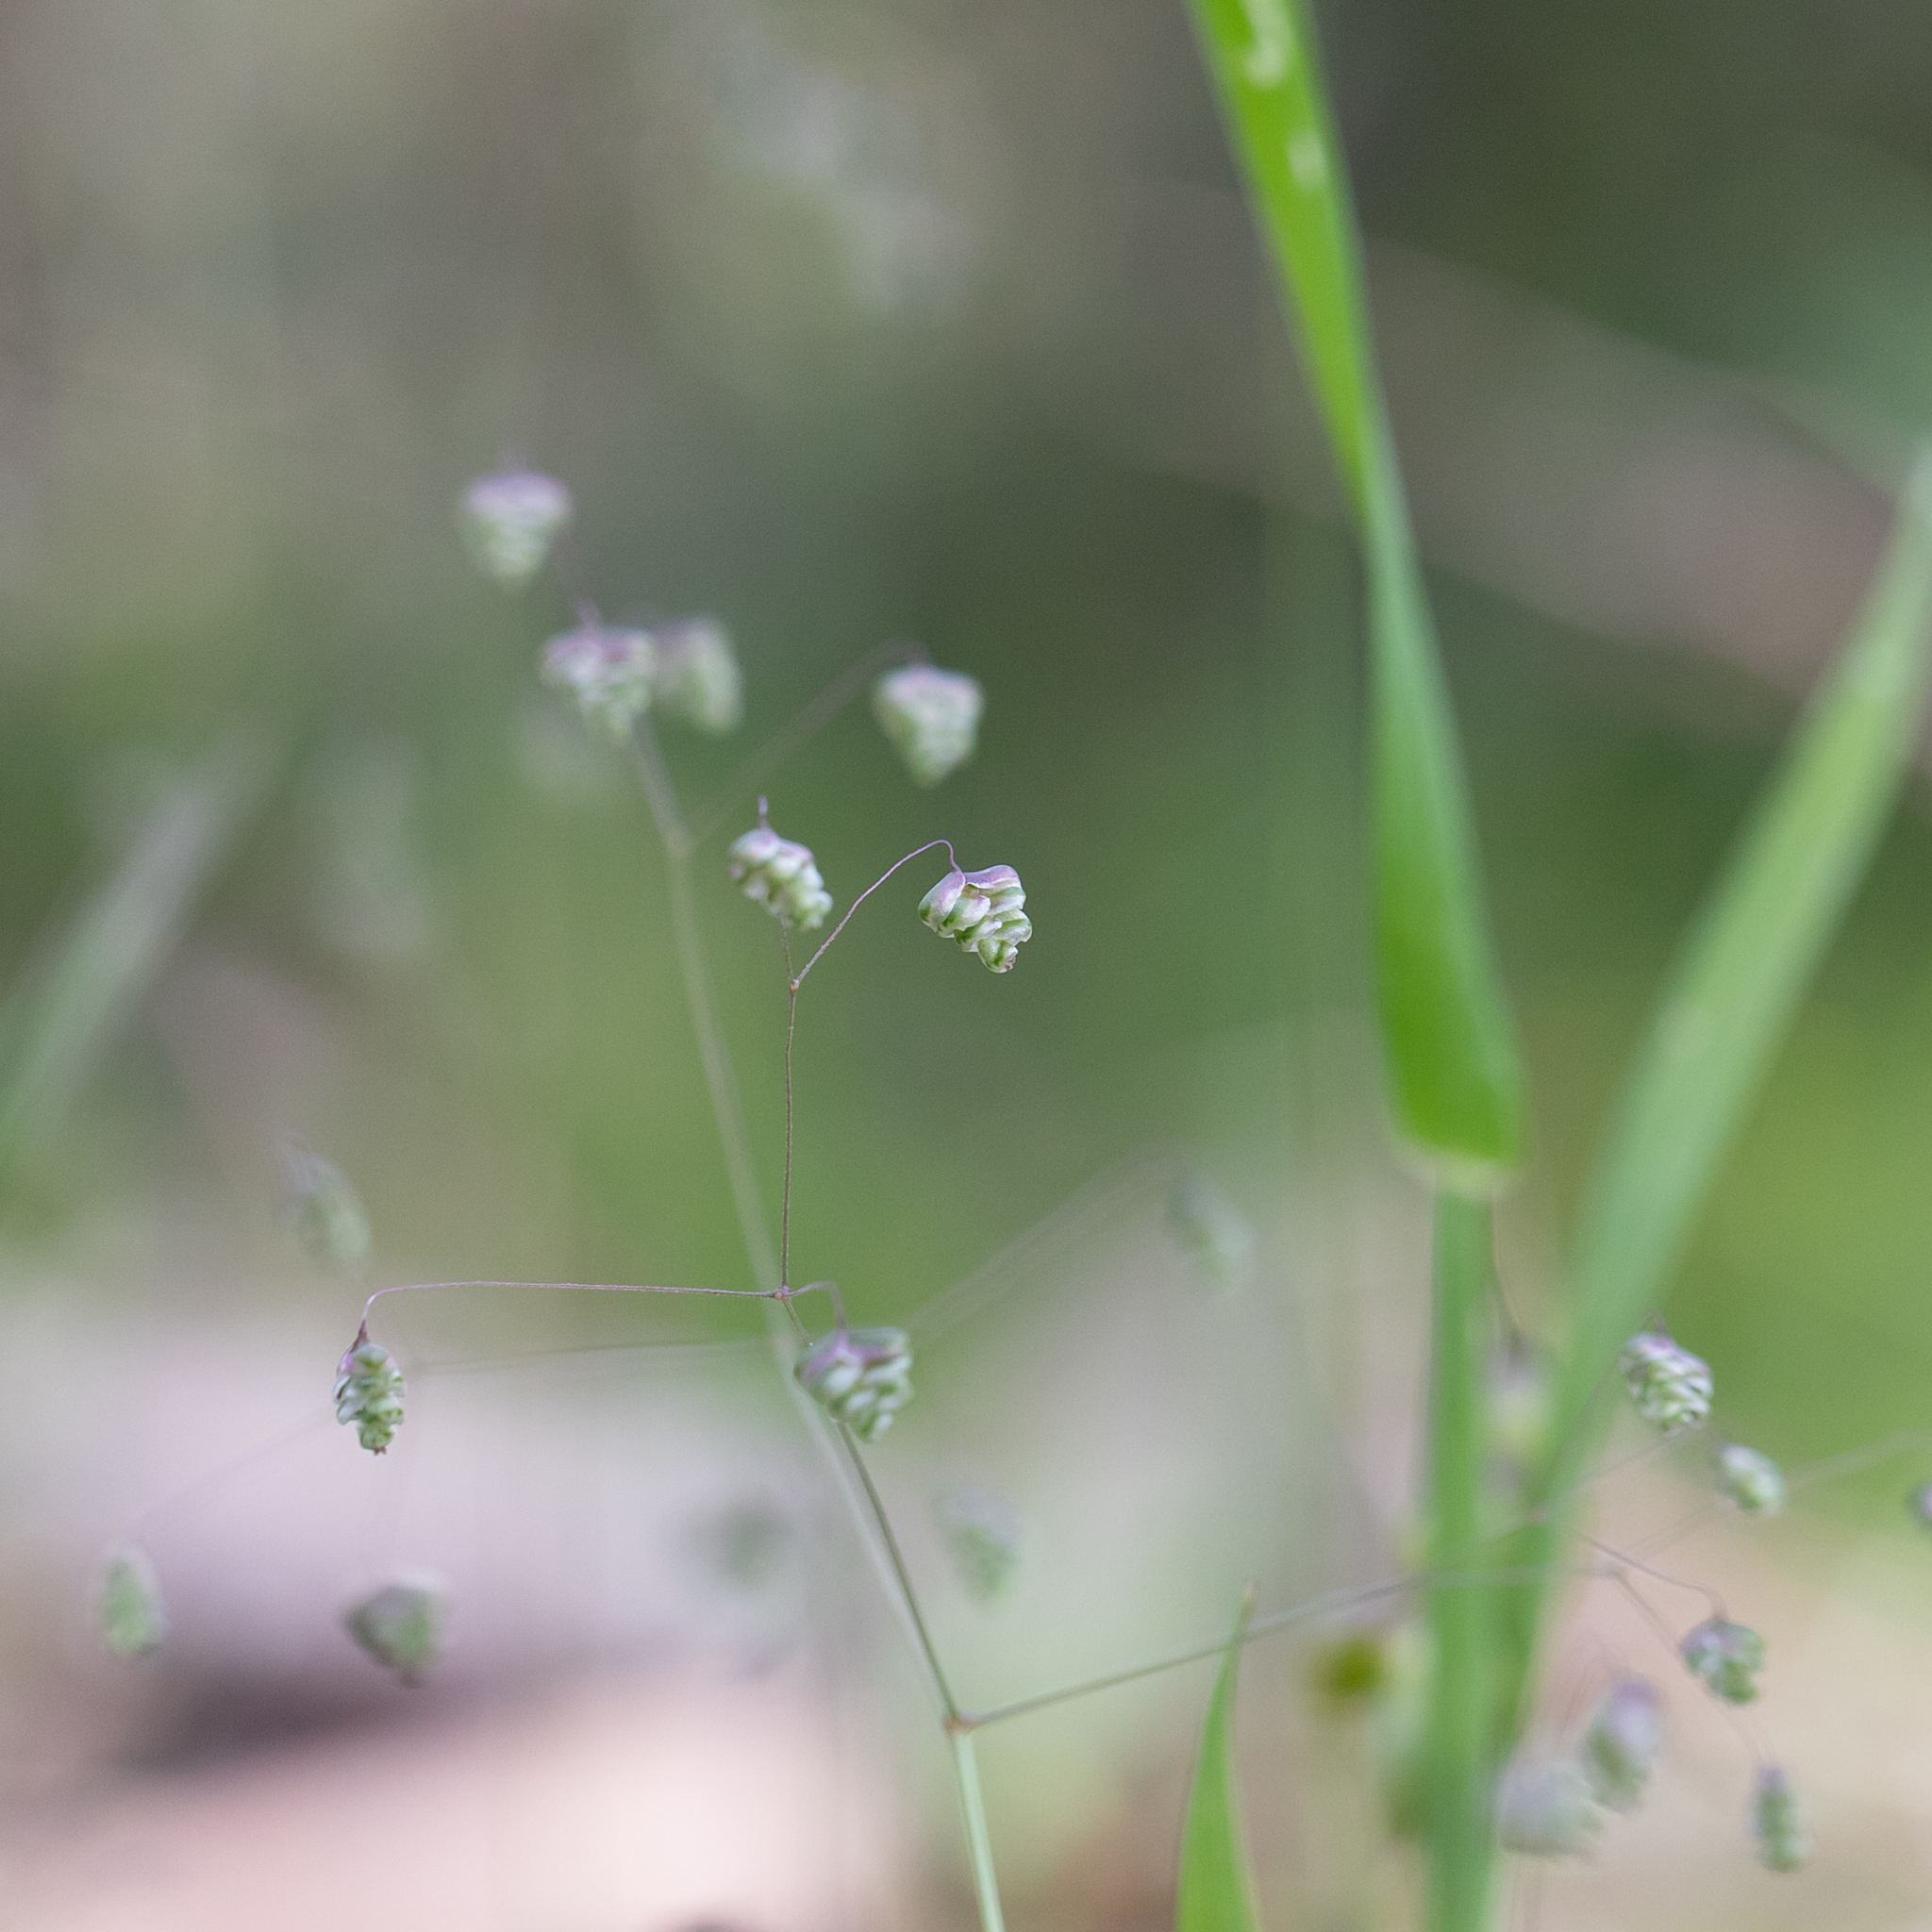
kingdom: Plantae
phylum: Tracheophyta
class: Liliopsida
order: Poales
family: Poaceae
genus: Briza
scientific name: Briza minor
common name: Lesser quaking-grass
